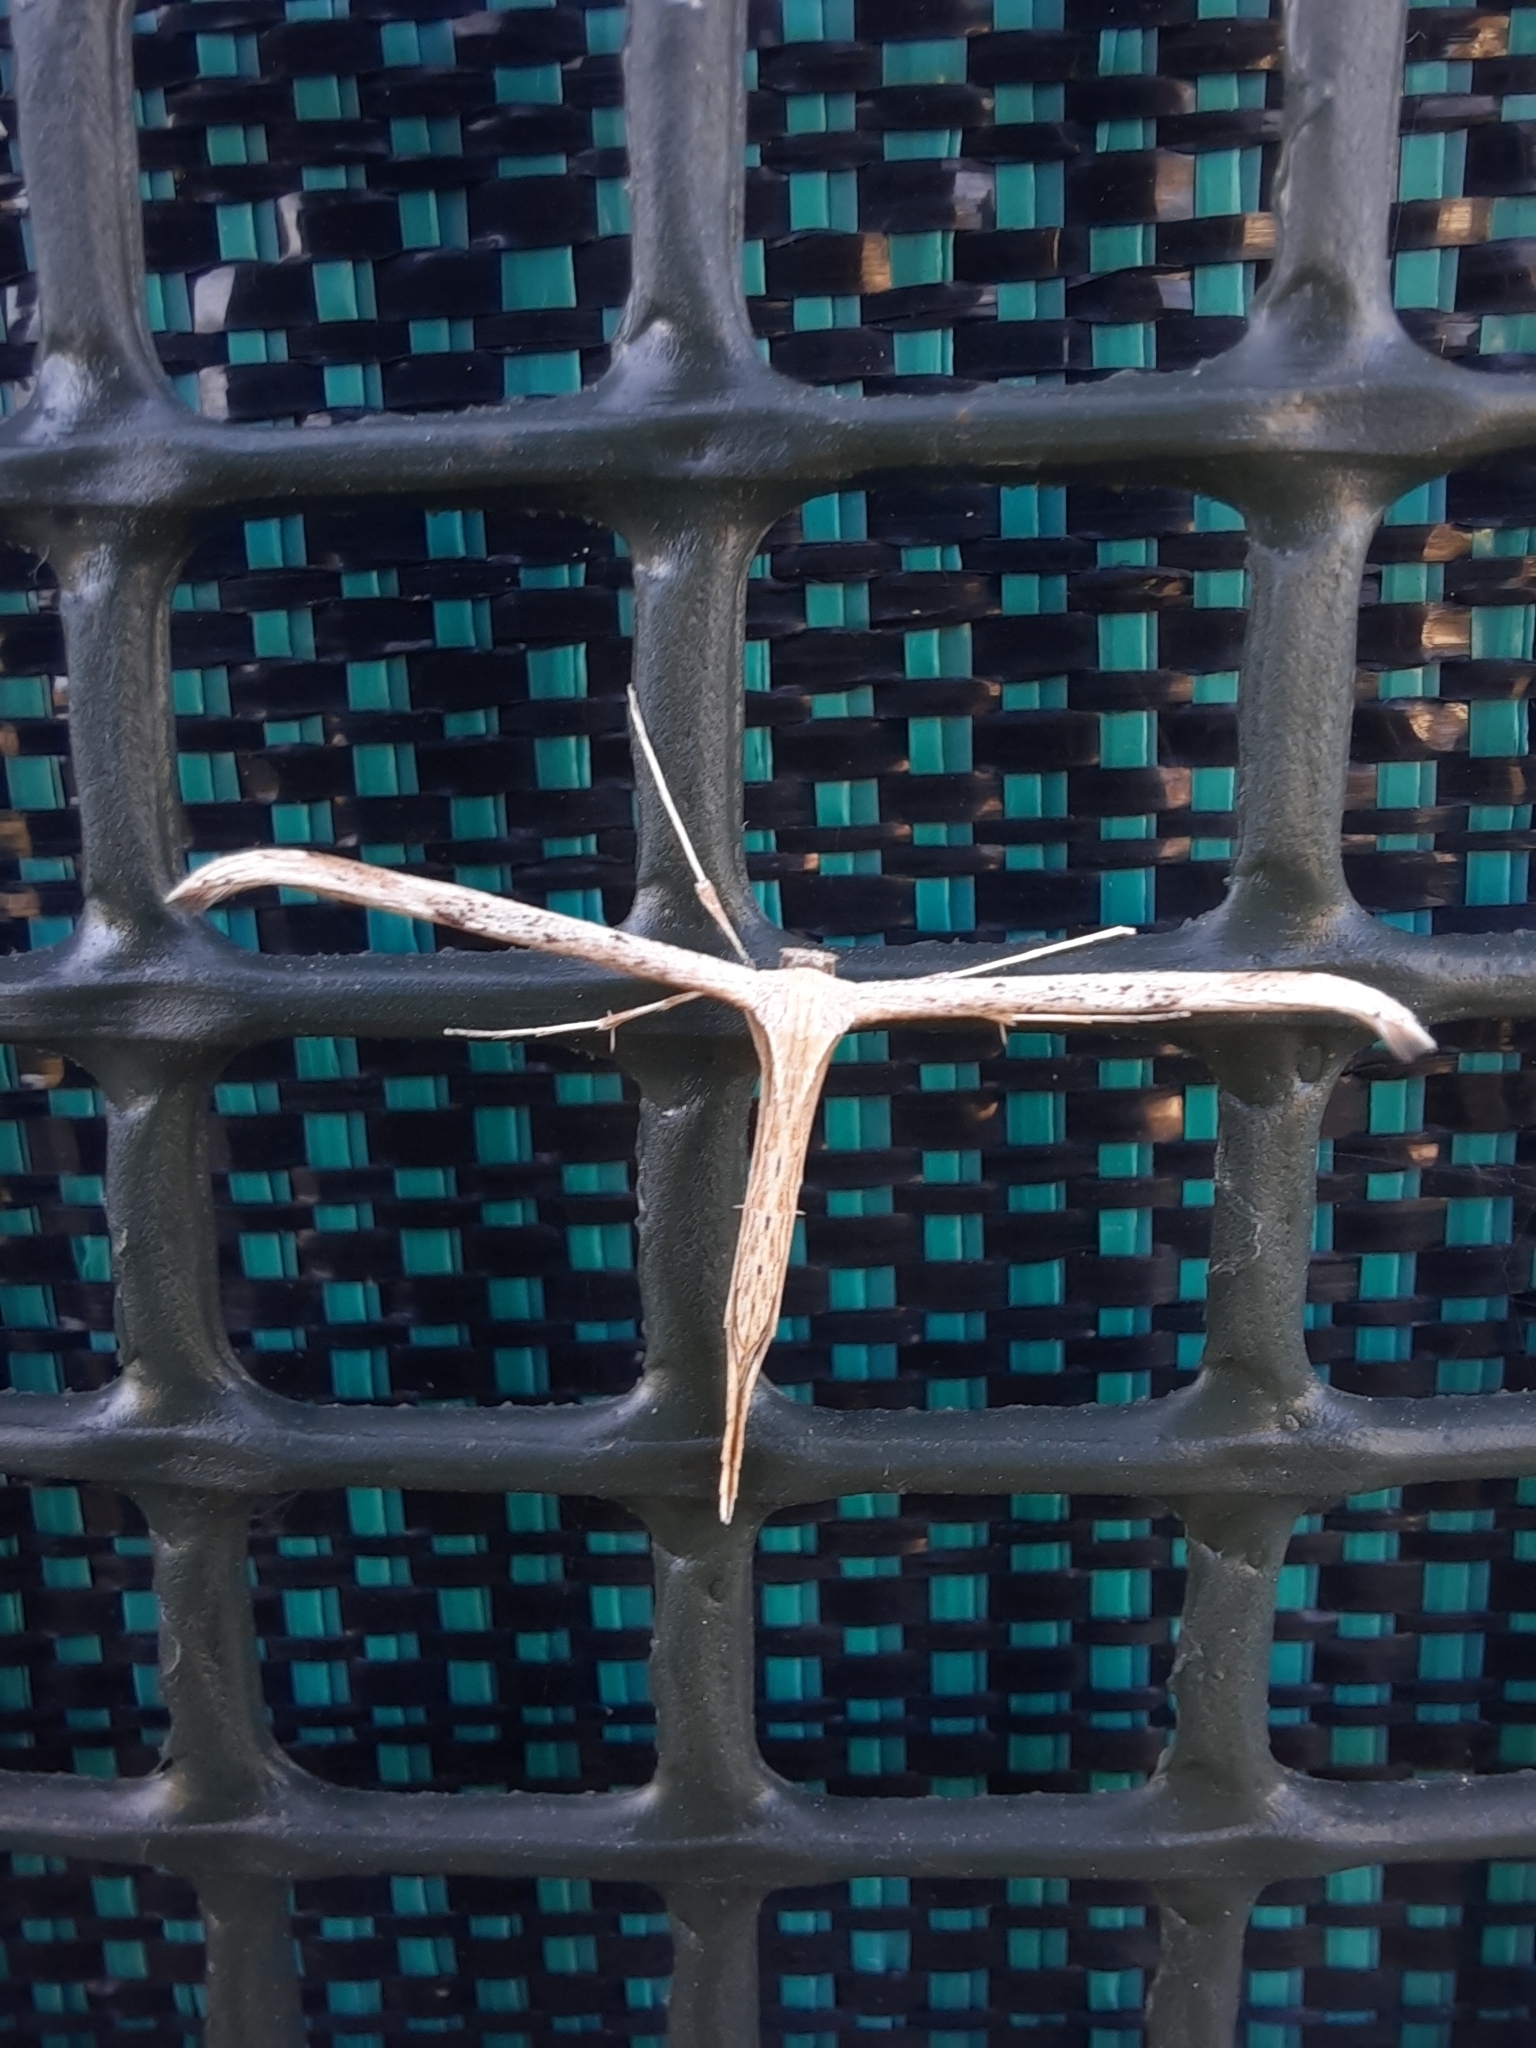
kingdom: Animalia
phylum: Arthropoda
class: Insecta
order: Lepidoptera
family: Pterophoridae
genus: Emmelina
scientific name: Emmelina monodactyla
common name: Common plume
